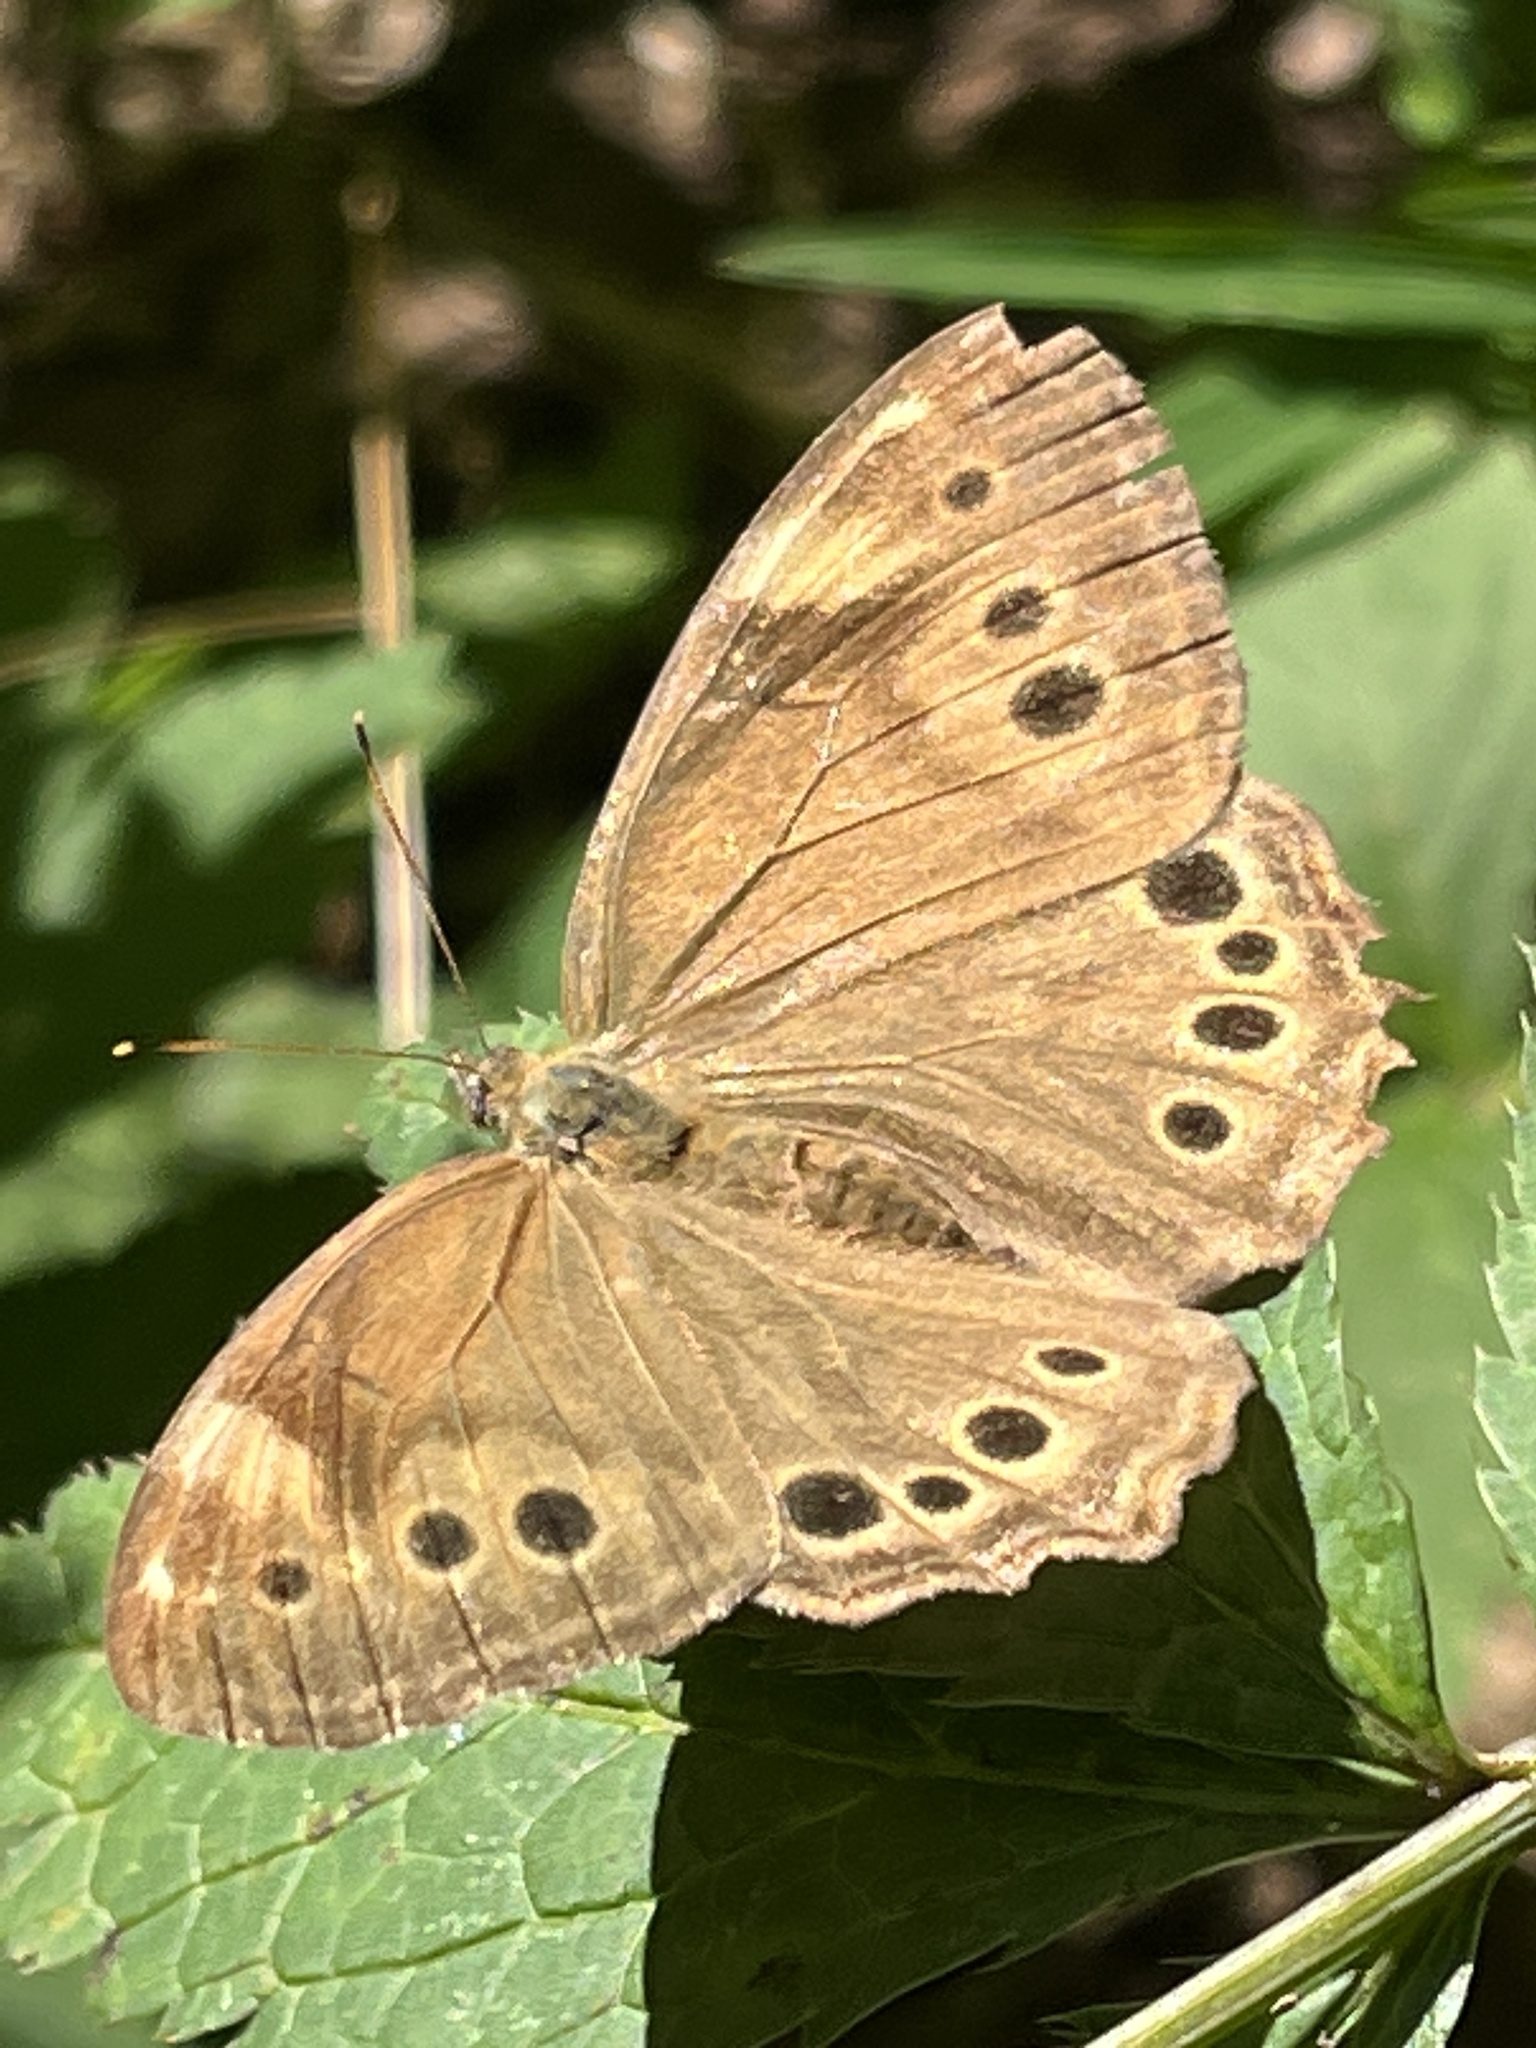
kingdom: Animalia
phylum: Arthropoda
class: Insecta
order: Lepidoptera
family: Nymphalidae
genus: Lethe
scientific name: Lethe anthedon
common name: Northern pearly-eye
